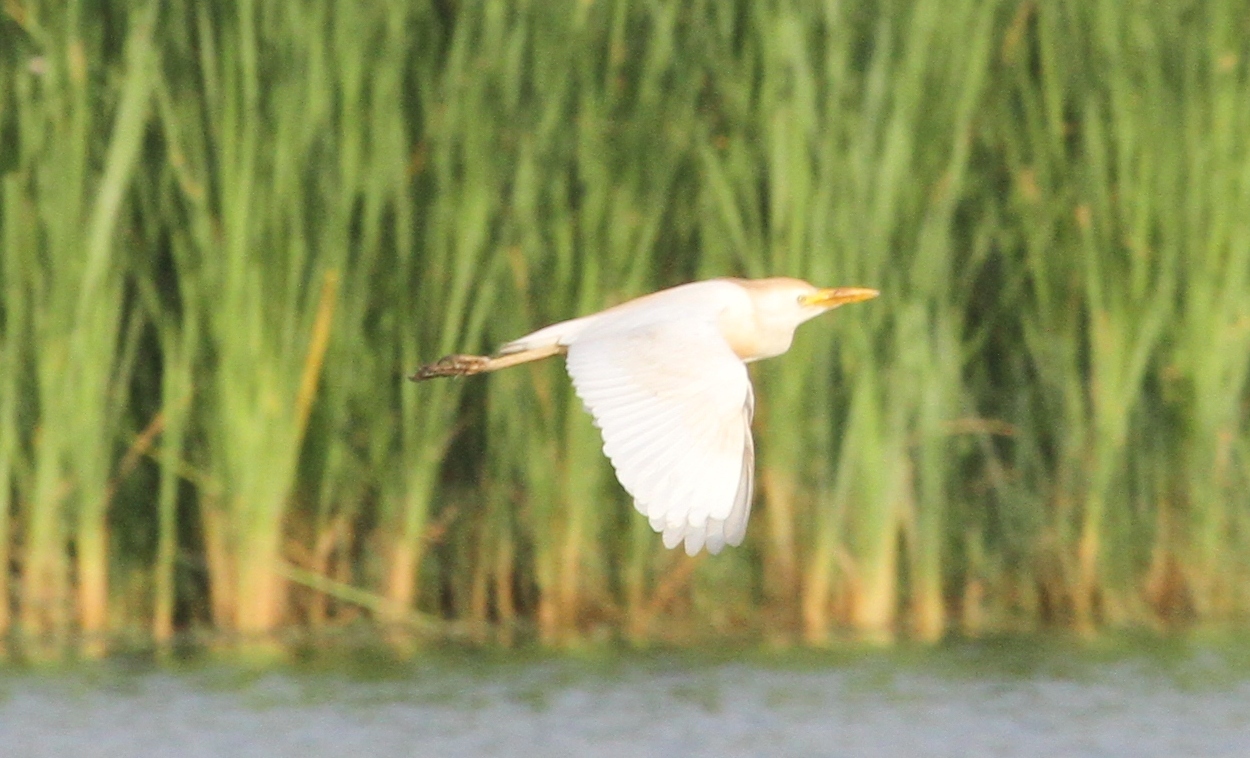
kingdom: Animalia
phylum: Chordata
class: Aves
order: Pelecaniformes
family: Ardeidae
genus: Bubulcus
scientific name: Bubulcus ibis
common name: Cattle egret
